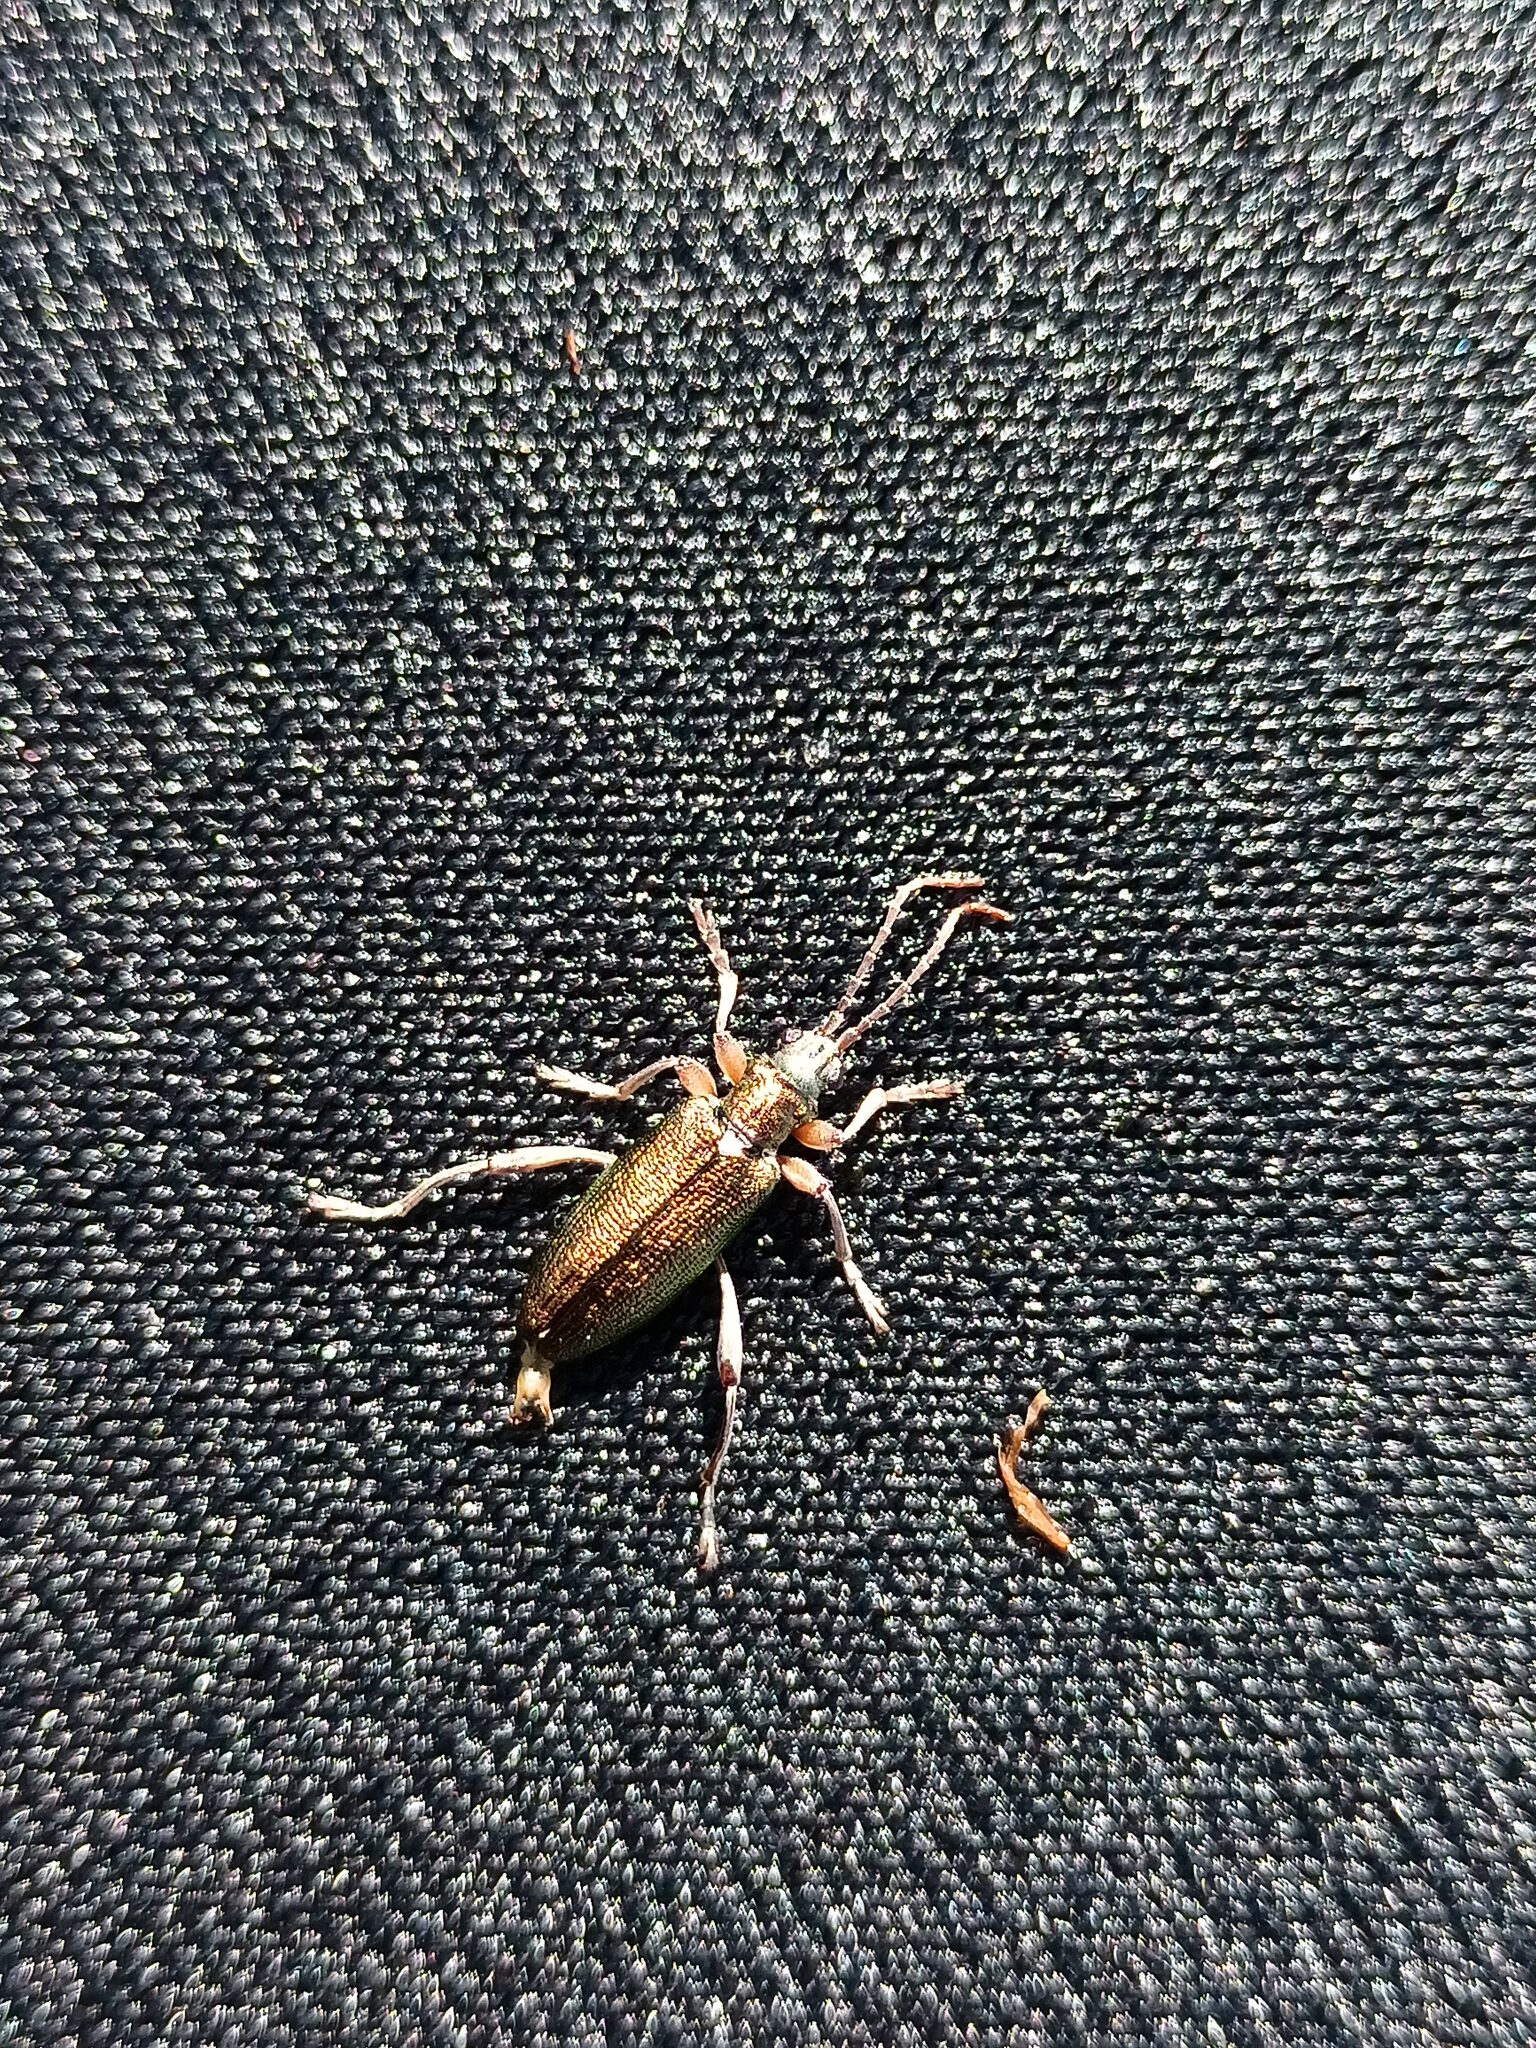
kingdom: Animalia
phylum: Arthropoda
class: Insecta
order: Coleoptera
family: Chrysomelidae
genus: Donacia
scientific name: Donacia clavipes
